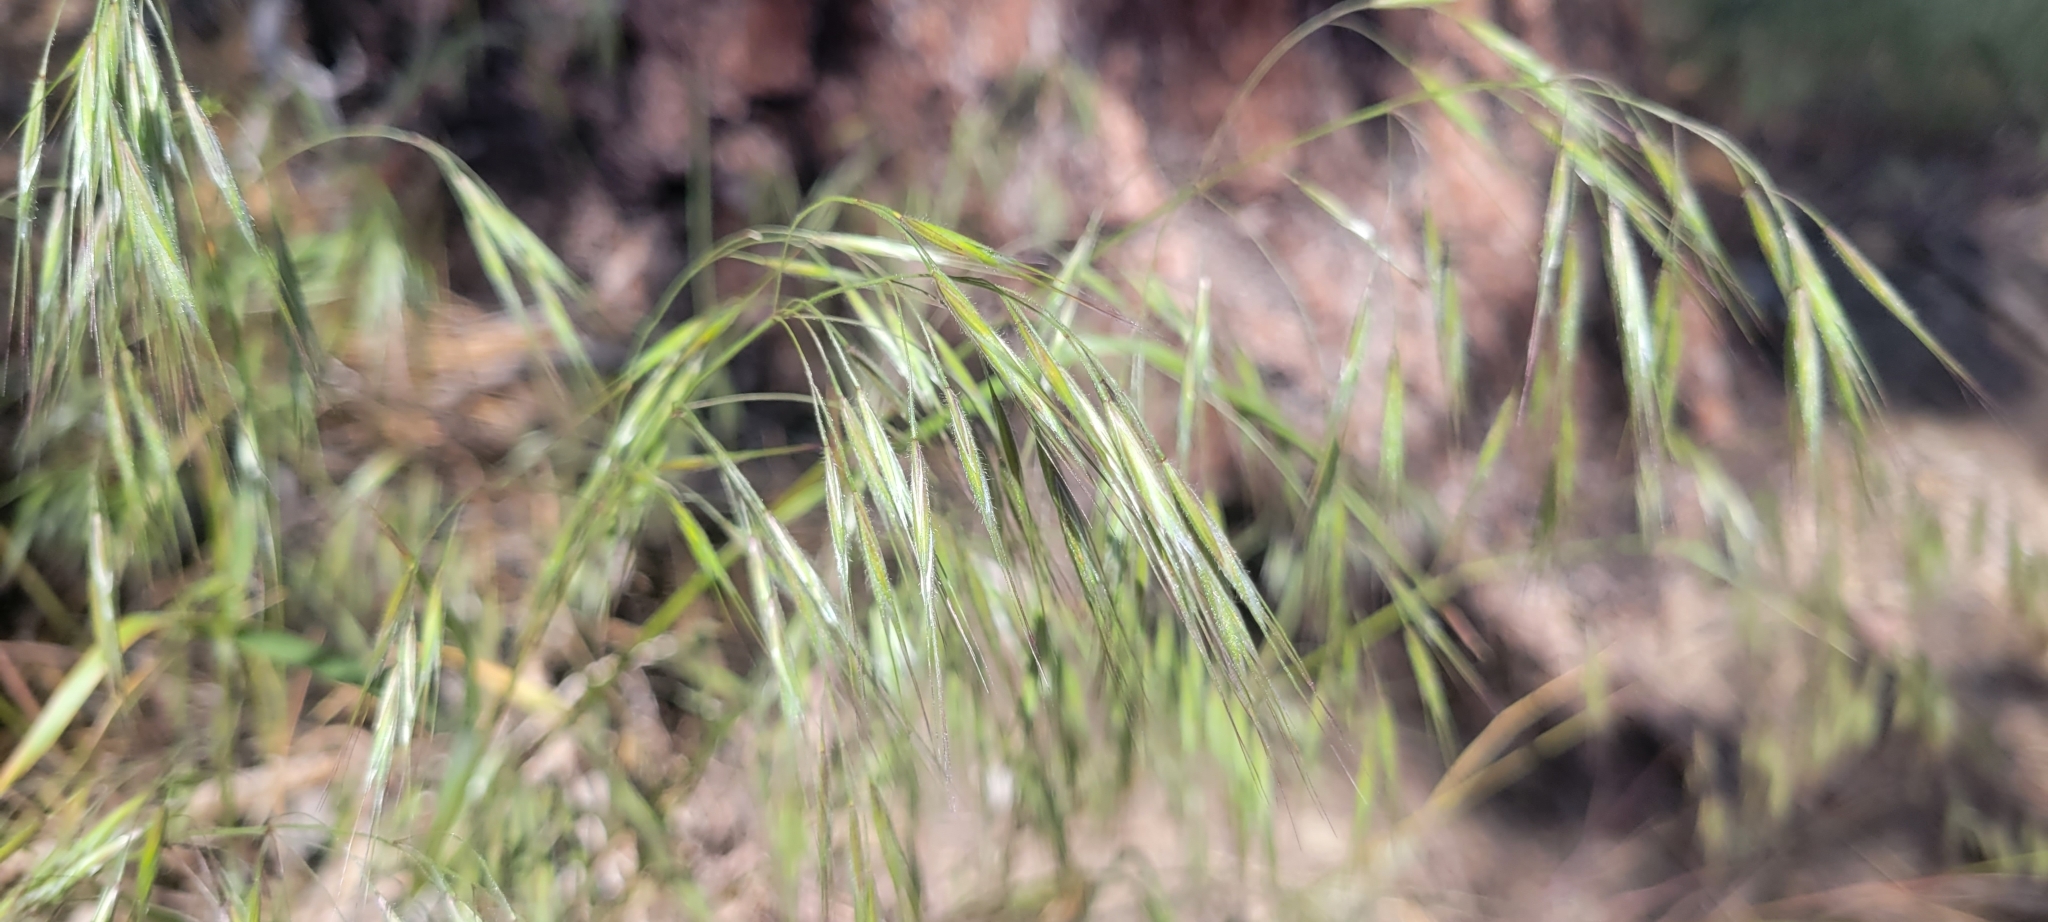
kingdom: Plantae
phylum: Tracheophyta
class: Liliopsida
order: Poales
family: Poaceae
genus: Bromus
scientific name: Bromus tectorum
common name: Cheatgrass
